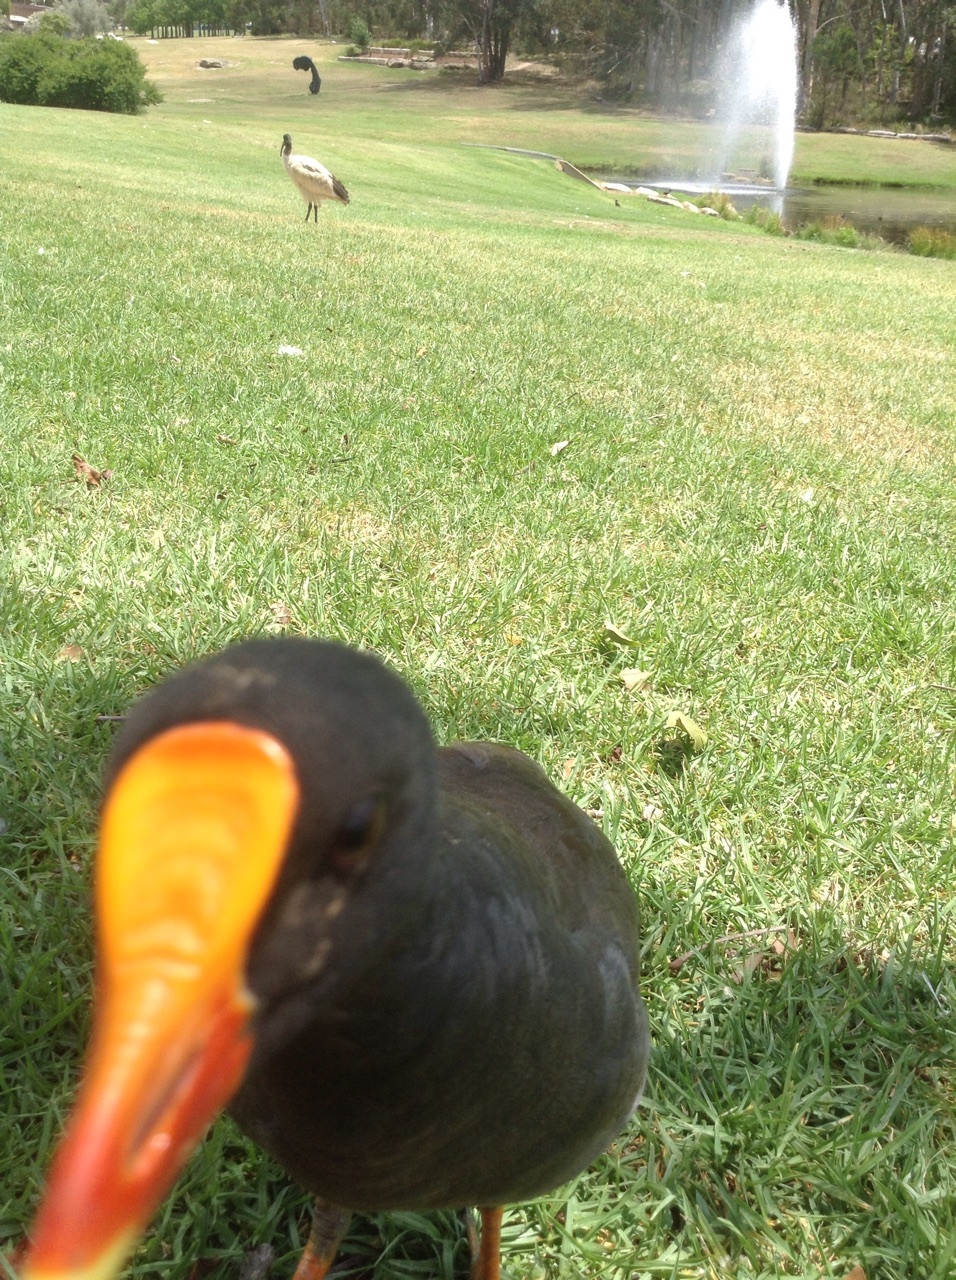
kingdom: Animalia
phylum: Chordata
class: Aves
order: Gruiformes
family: Rallidae
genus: Gallinula
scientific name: Gallinula tenebrosa
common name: Dusky moorhen
